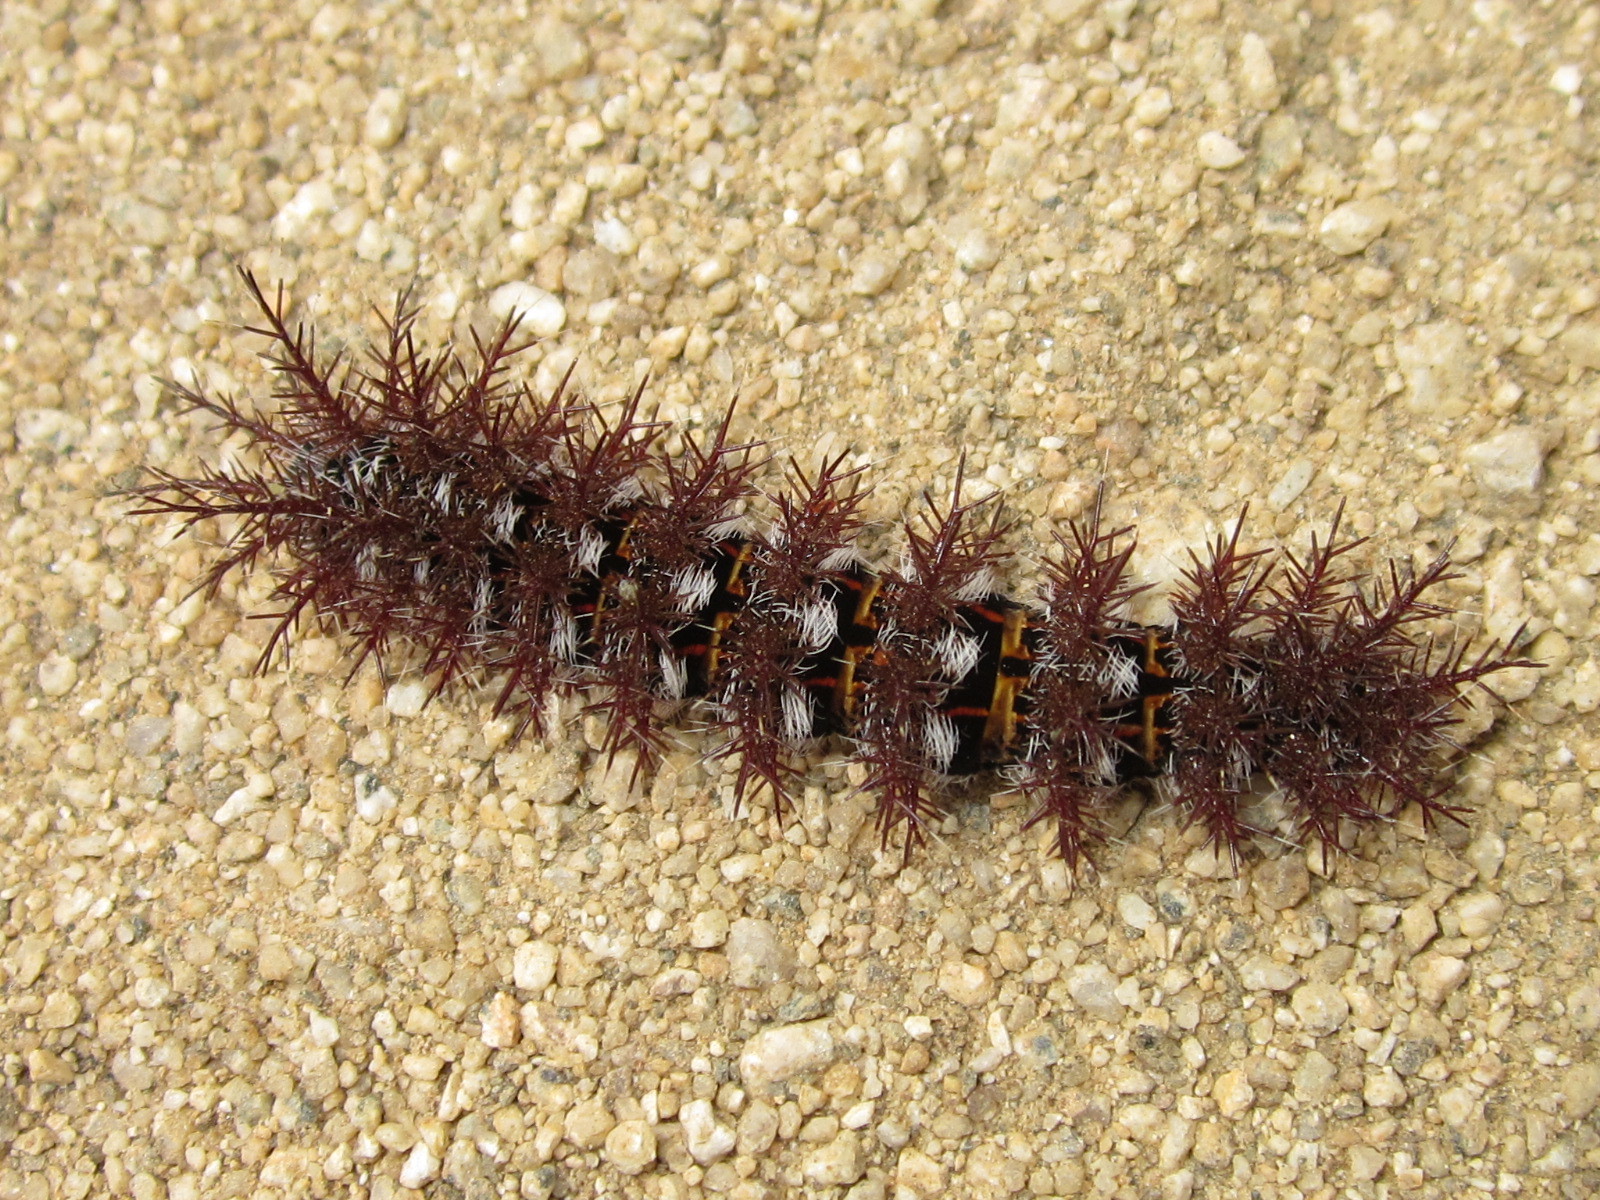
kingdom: Animalia
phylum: Arthropoda
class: Insecta
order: Lepidoptera
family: Saturniidae
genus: Ormiscodes
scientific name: Ormiscodes cinnamomea
